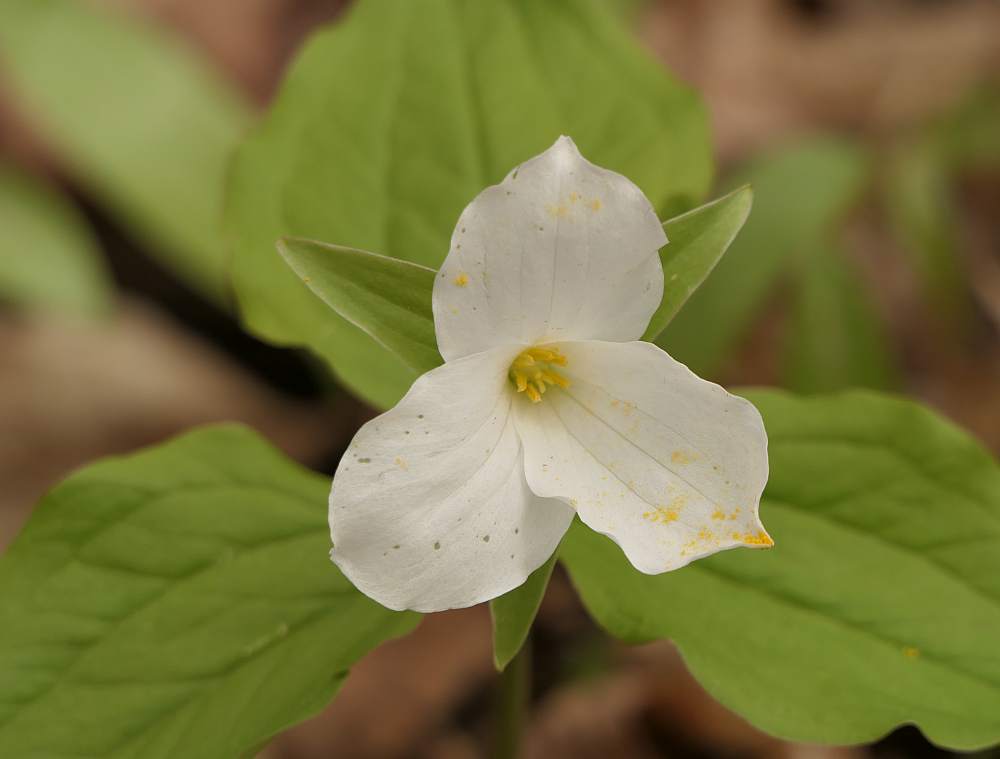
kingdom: Plantae
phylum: Tracheophyta
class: Liliopsida
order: Liliales
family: Melanthiaceae
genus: Trillium
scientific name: Trillium grandiflorum
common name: Great white trillium
